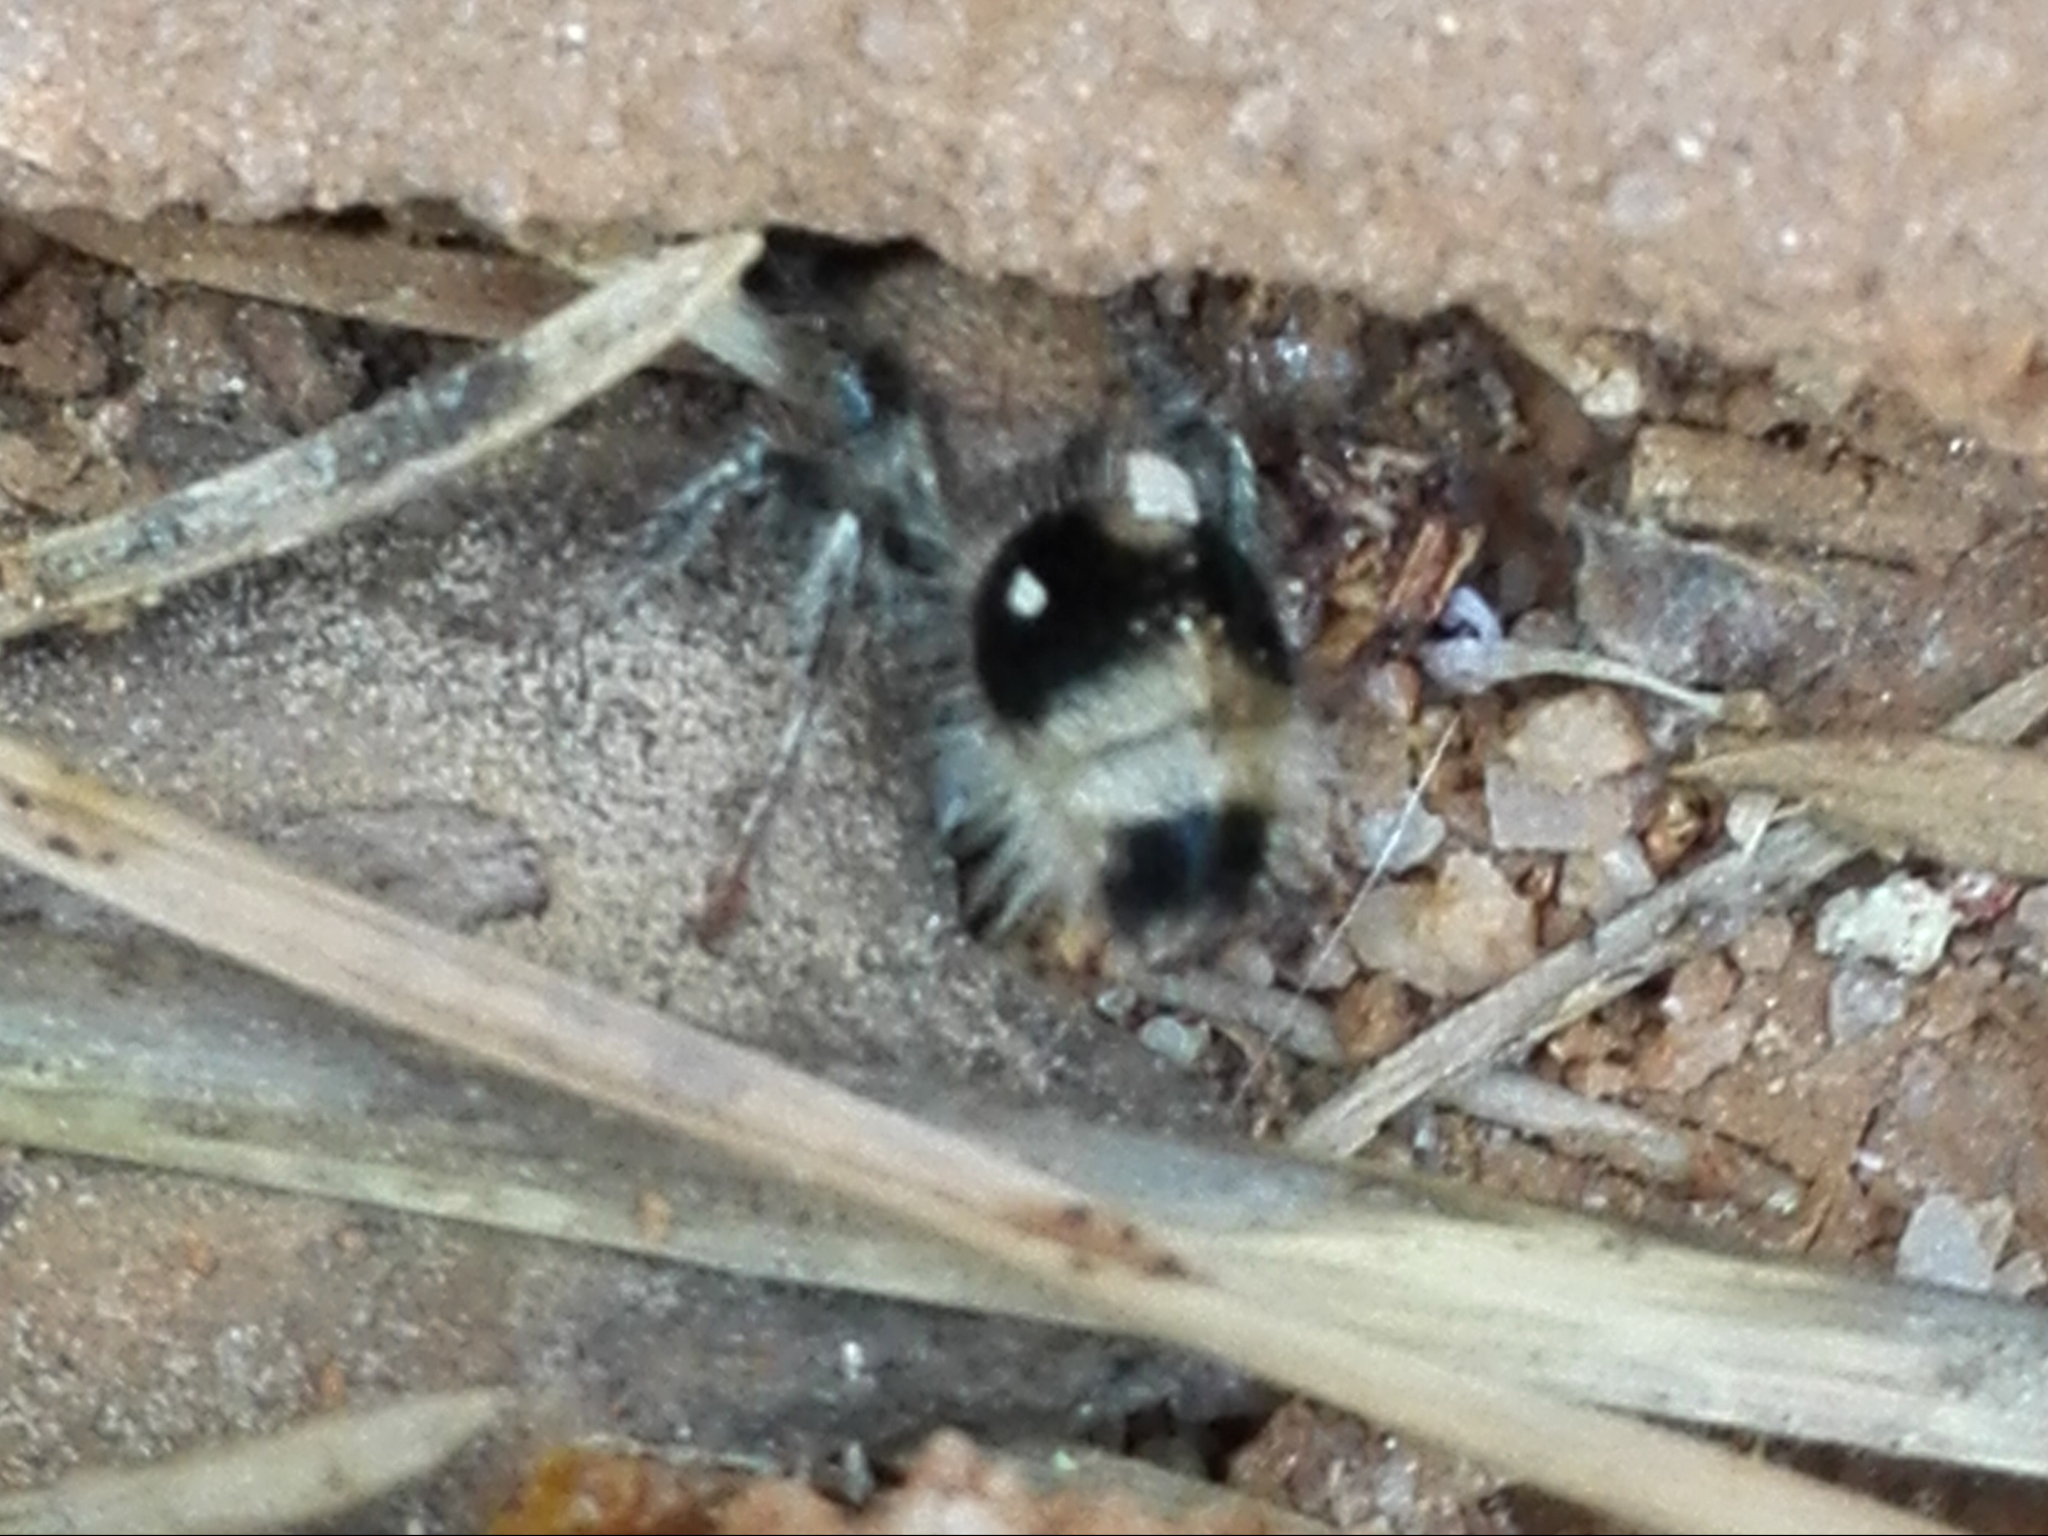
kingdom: Animalia
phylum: Arthropoda
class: Insecta
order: Hymenoptera
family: Mutillidae
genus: Nemka
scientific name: Nemka viduata
